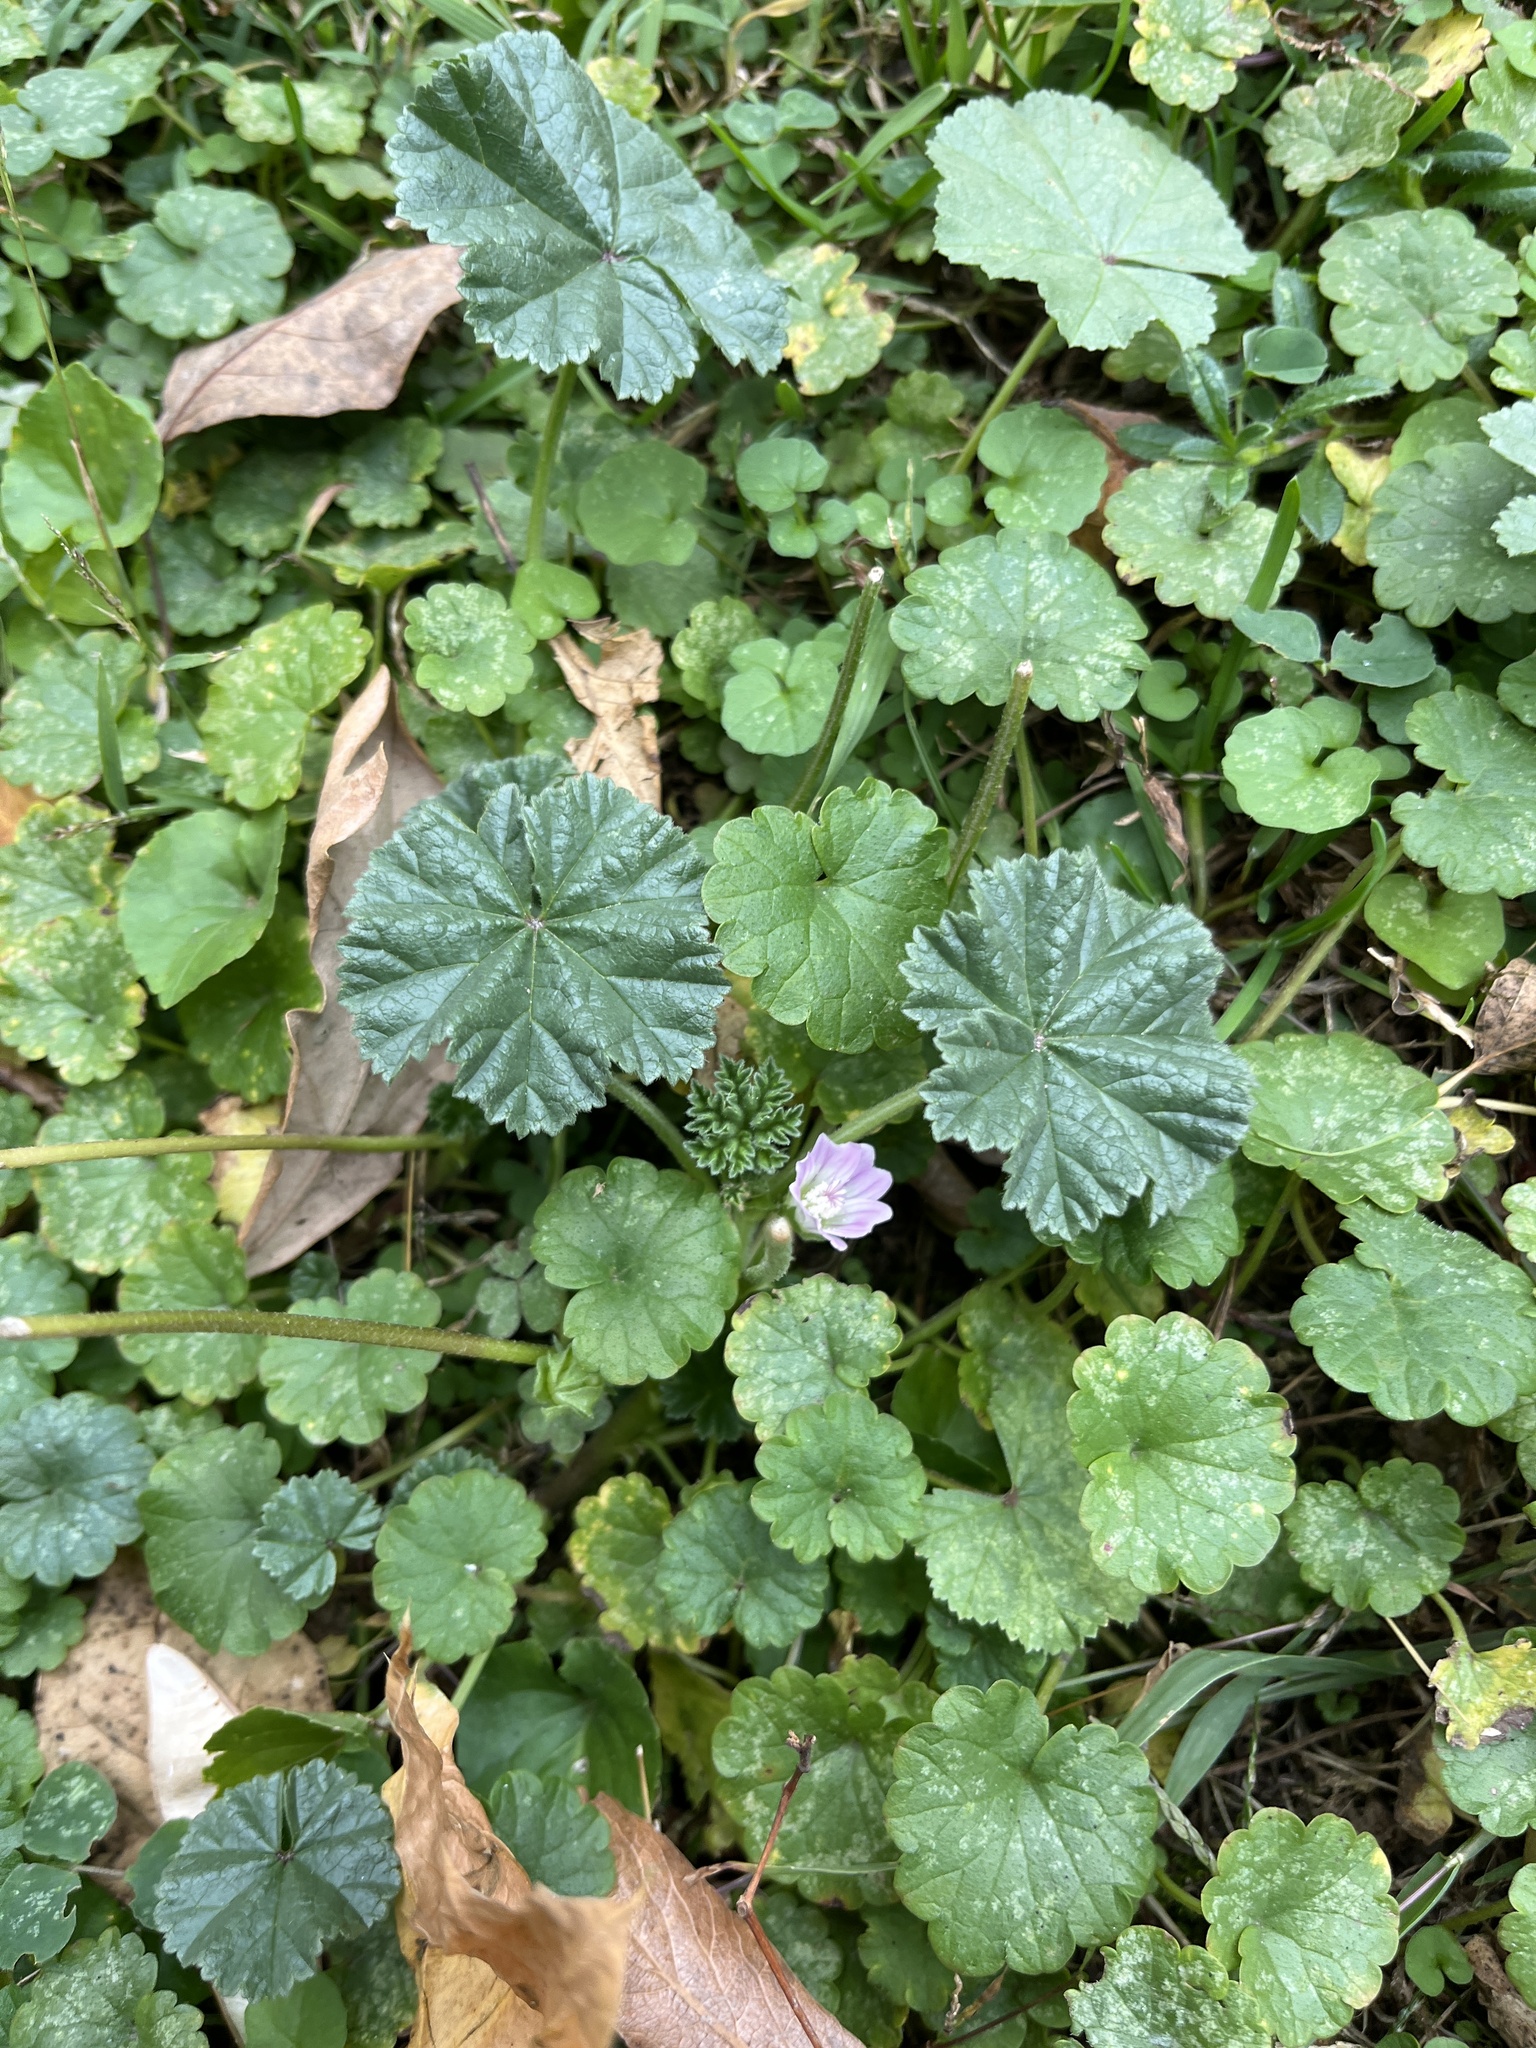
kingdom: Plantae
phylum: Tracheophyta
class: Magnoliopsida
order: Malvales
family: Malvaceae
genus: Malva
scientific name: Malva neglecta
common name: Common mallow
